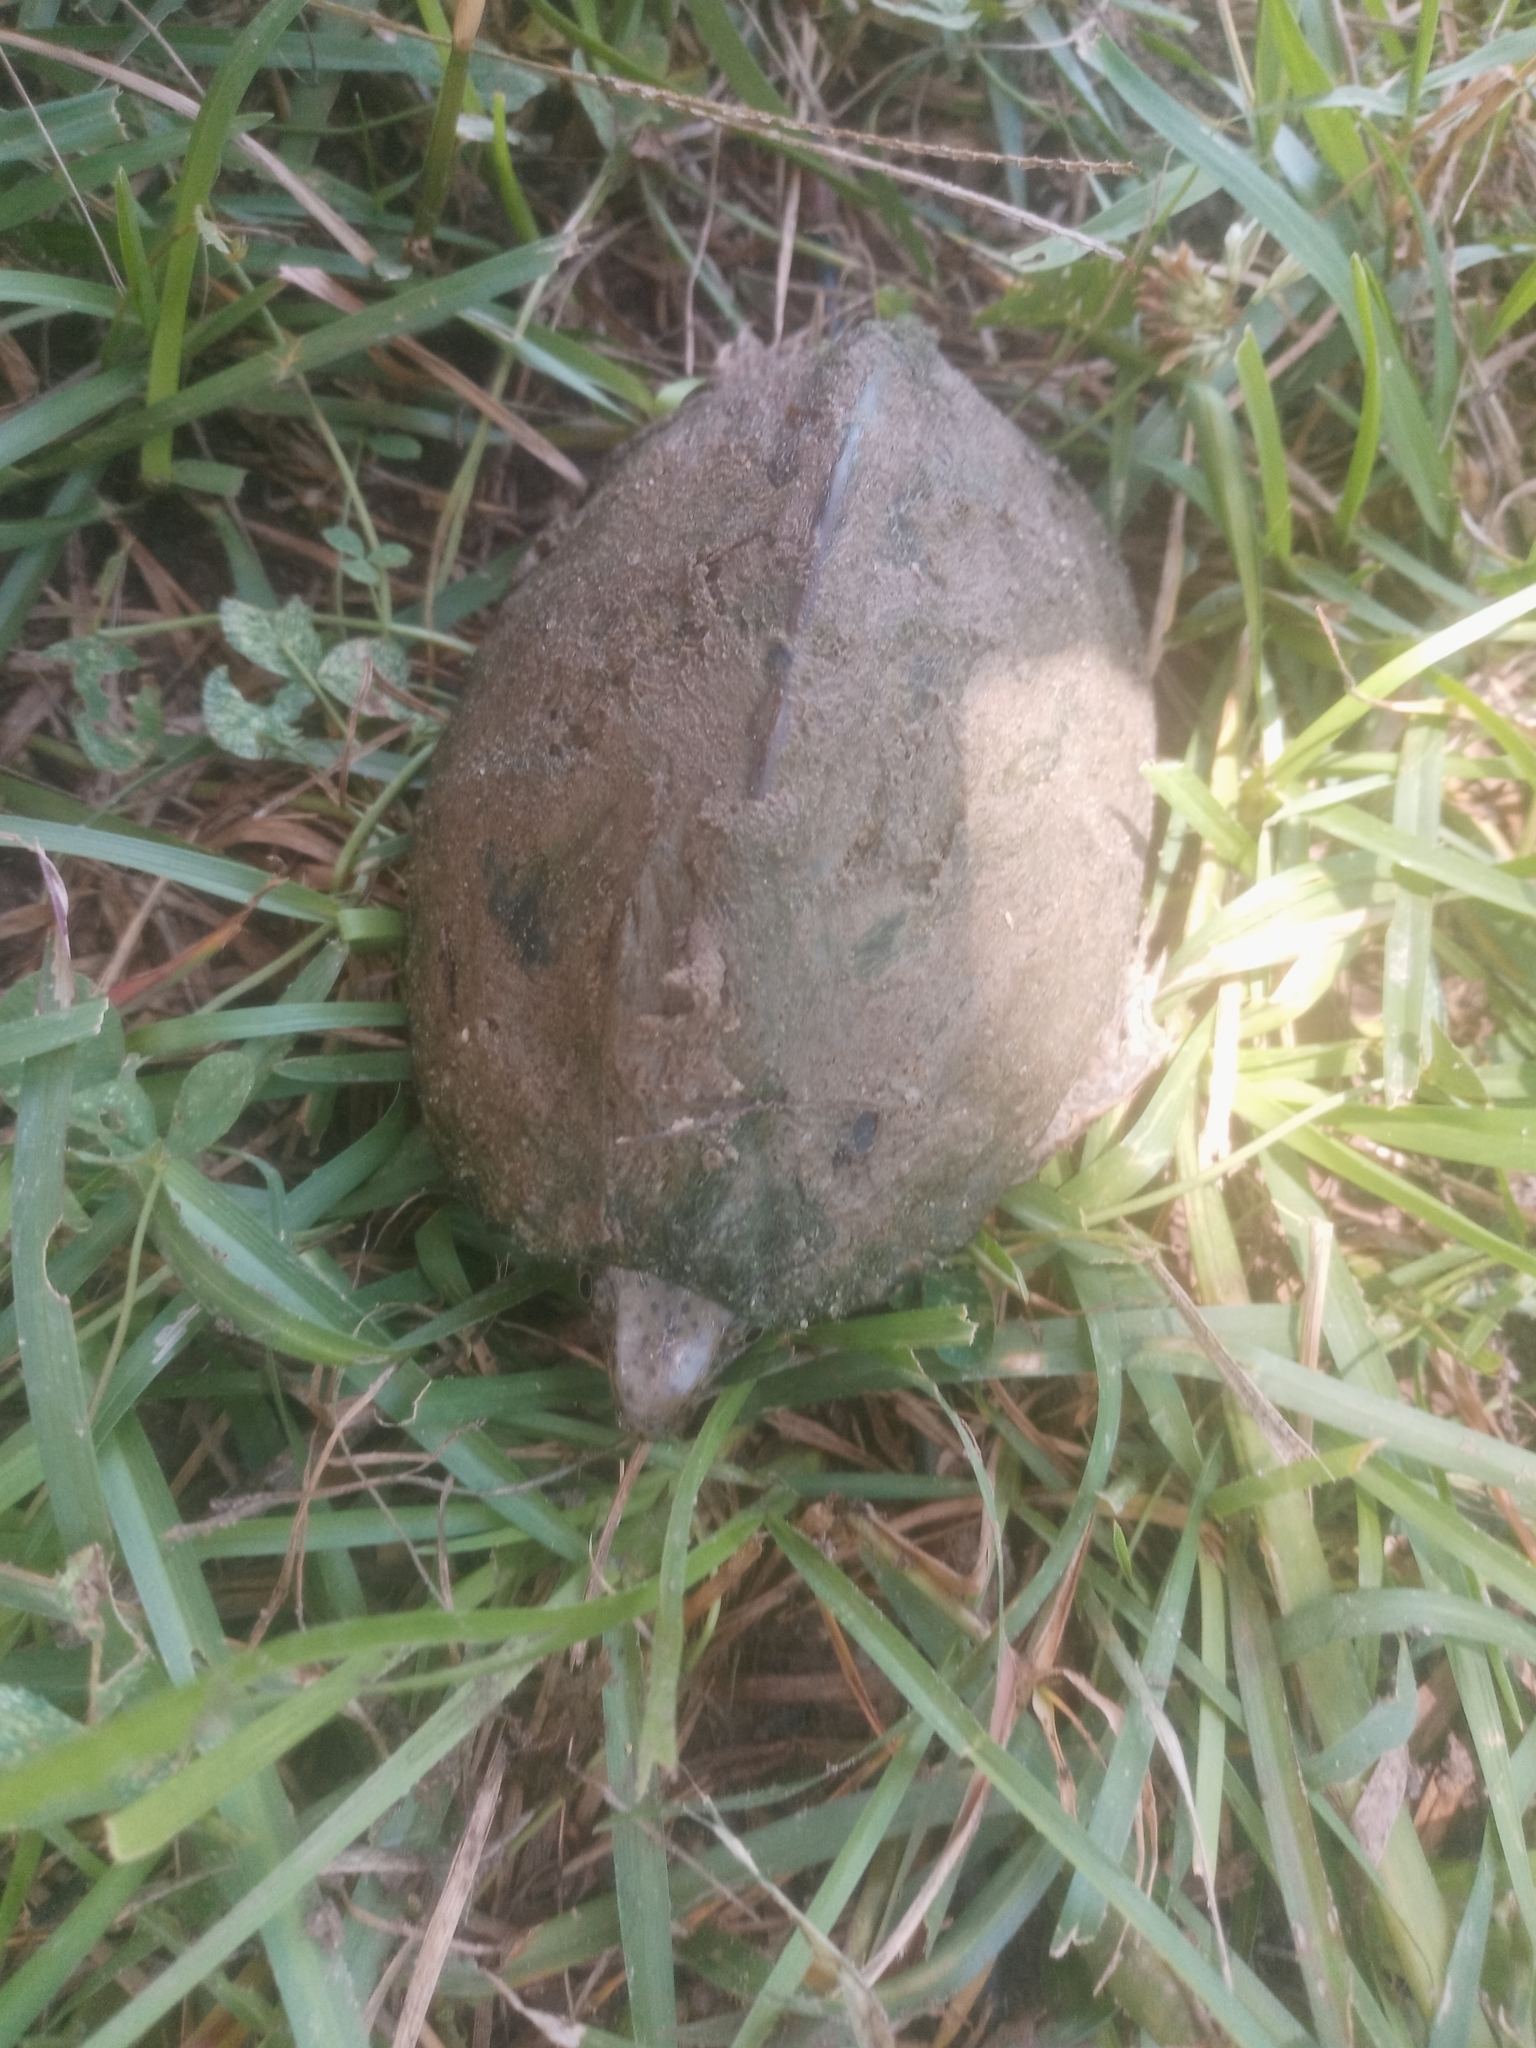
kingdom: Animalia
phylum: Chordata
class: Testudines
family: Kinosternidae
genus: Sternotherus
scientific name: Sternotherus carinatus
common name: Razor-backed musk turtle
